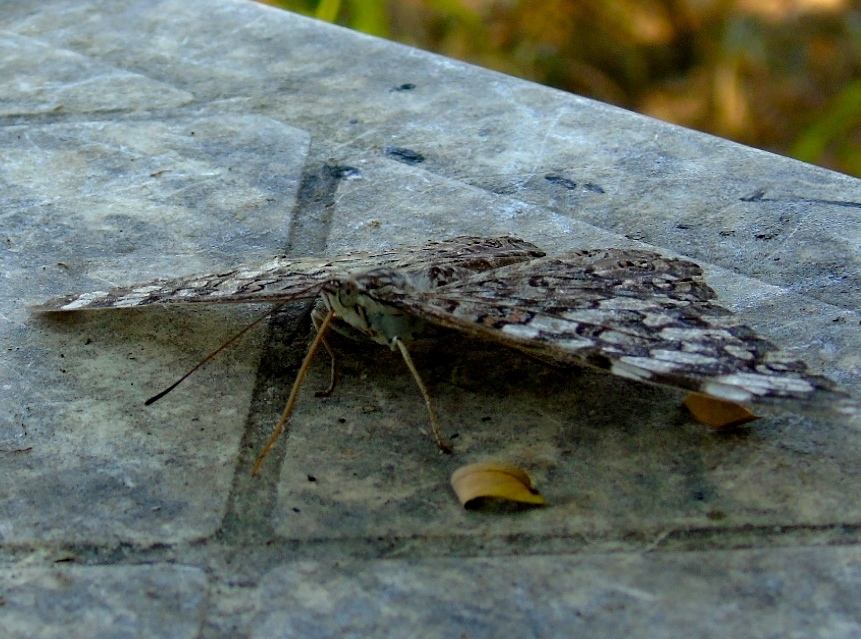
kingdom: Animalia
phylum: Arthropoda
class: Insecta
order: Lepidoptera
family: Nymphalidae
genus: Hamadryas
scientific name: Hamadryas februa
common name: Gray cracker
